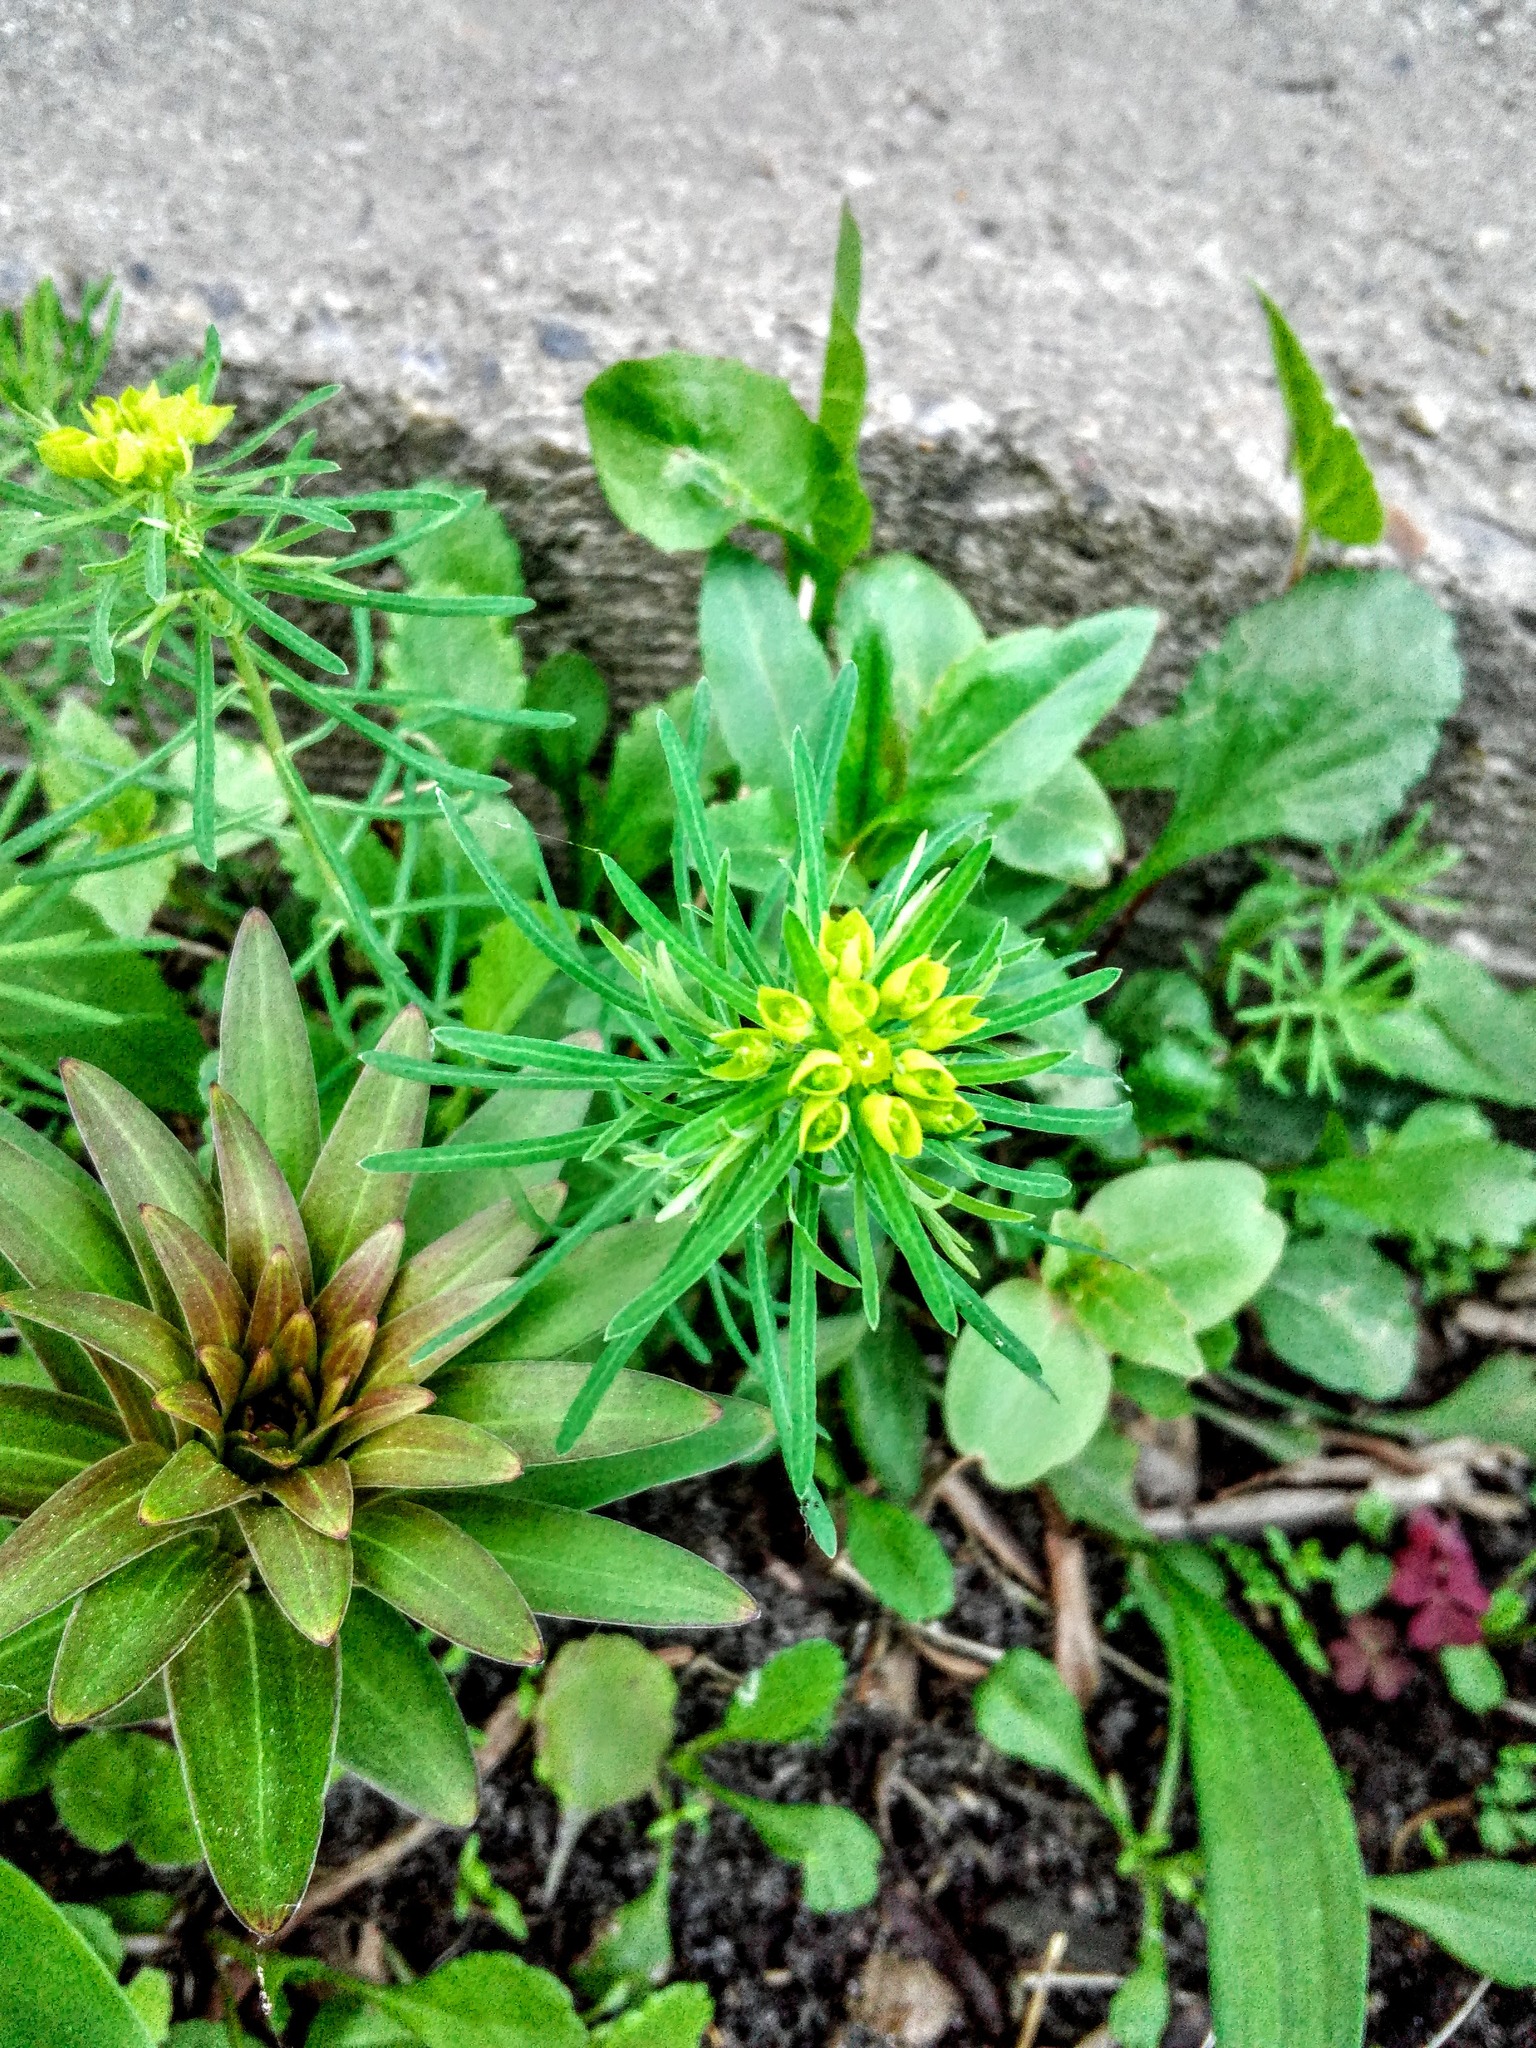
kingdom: Plantae
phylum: Tracheophyta
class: Magnoliopsida
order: Malpighiales
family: Euphorbiaceae
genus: Euphorbia
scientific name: Euphorbia cyparissias
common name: Cypress spurge
